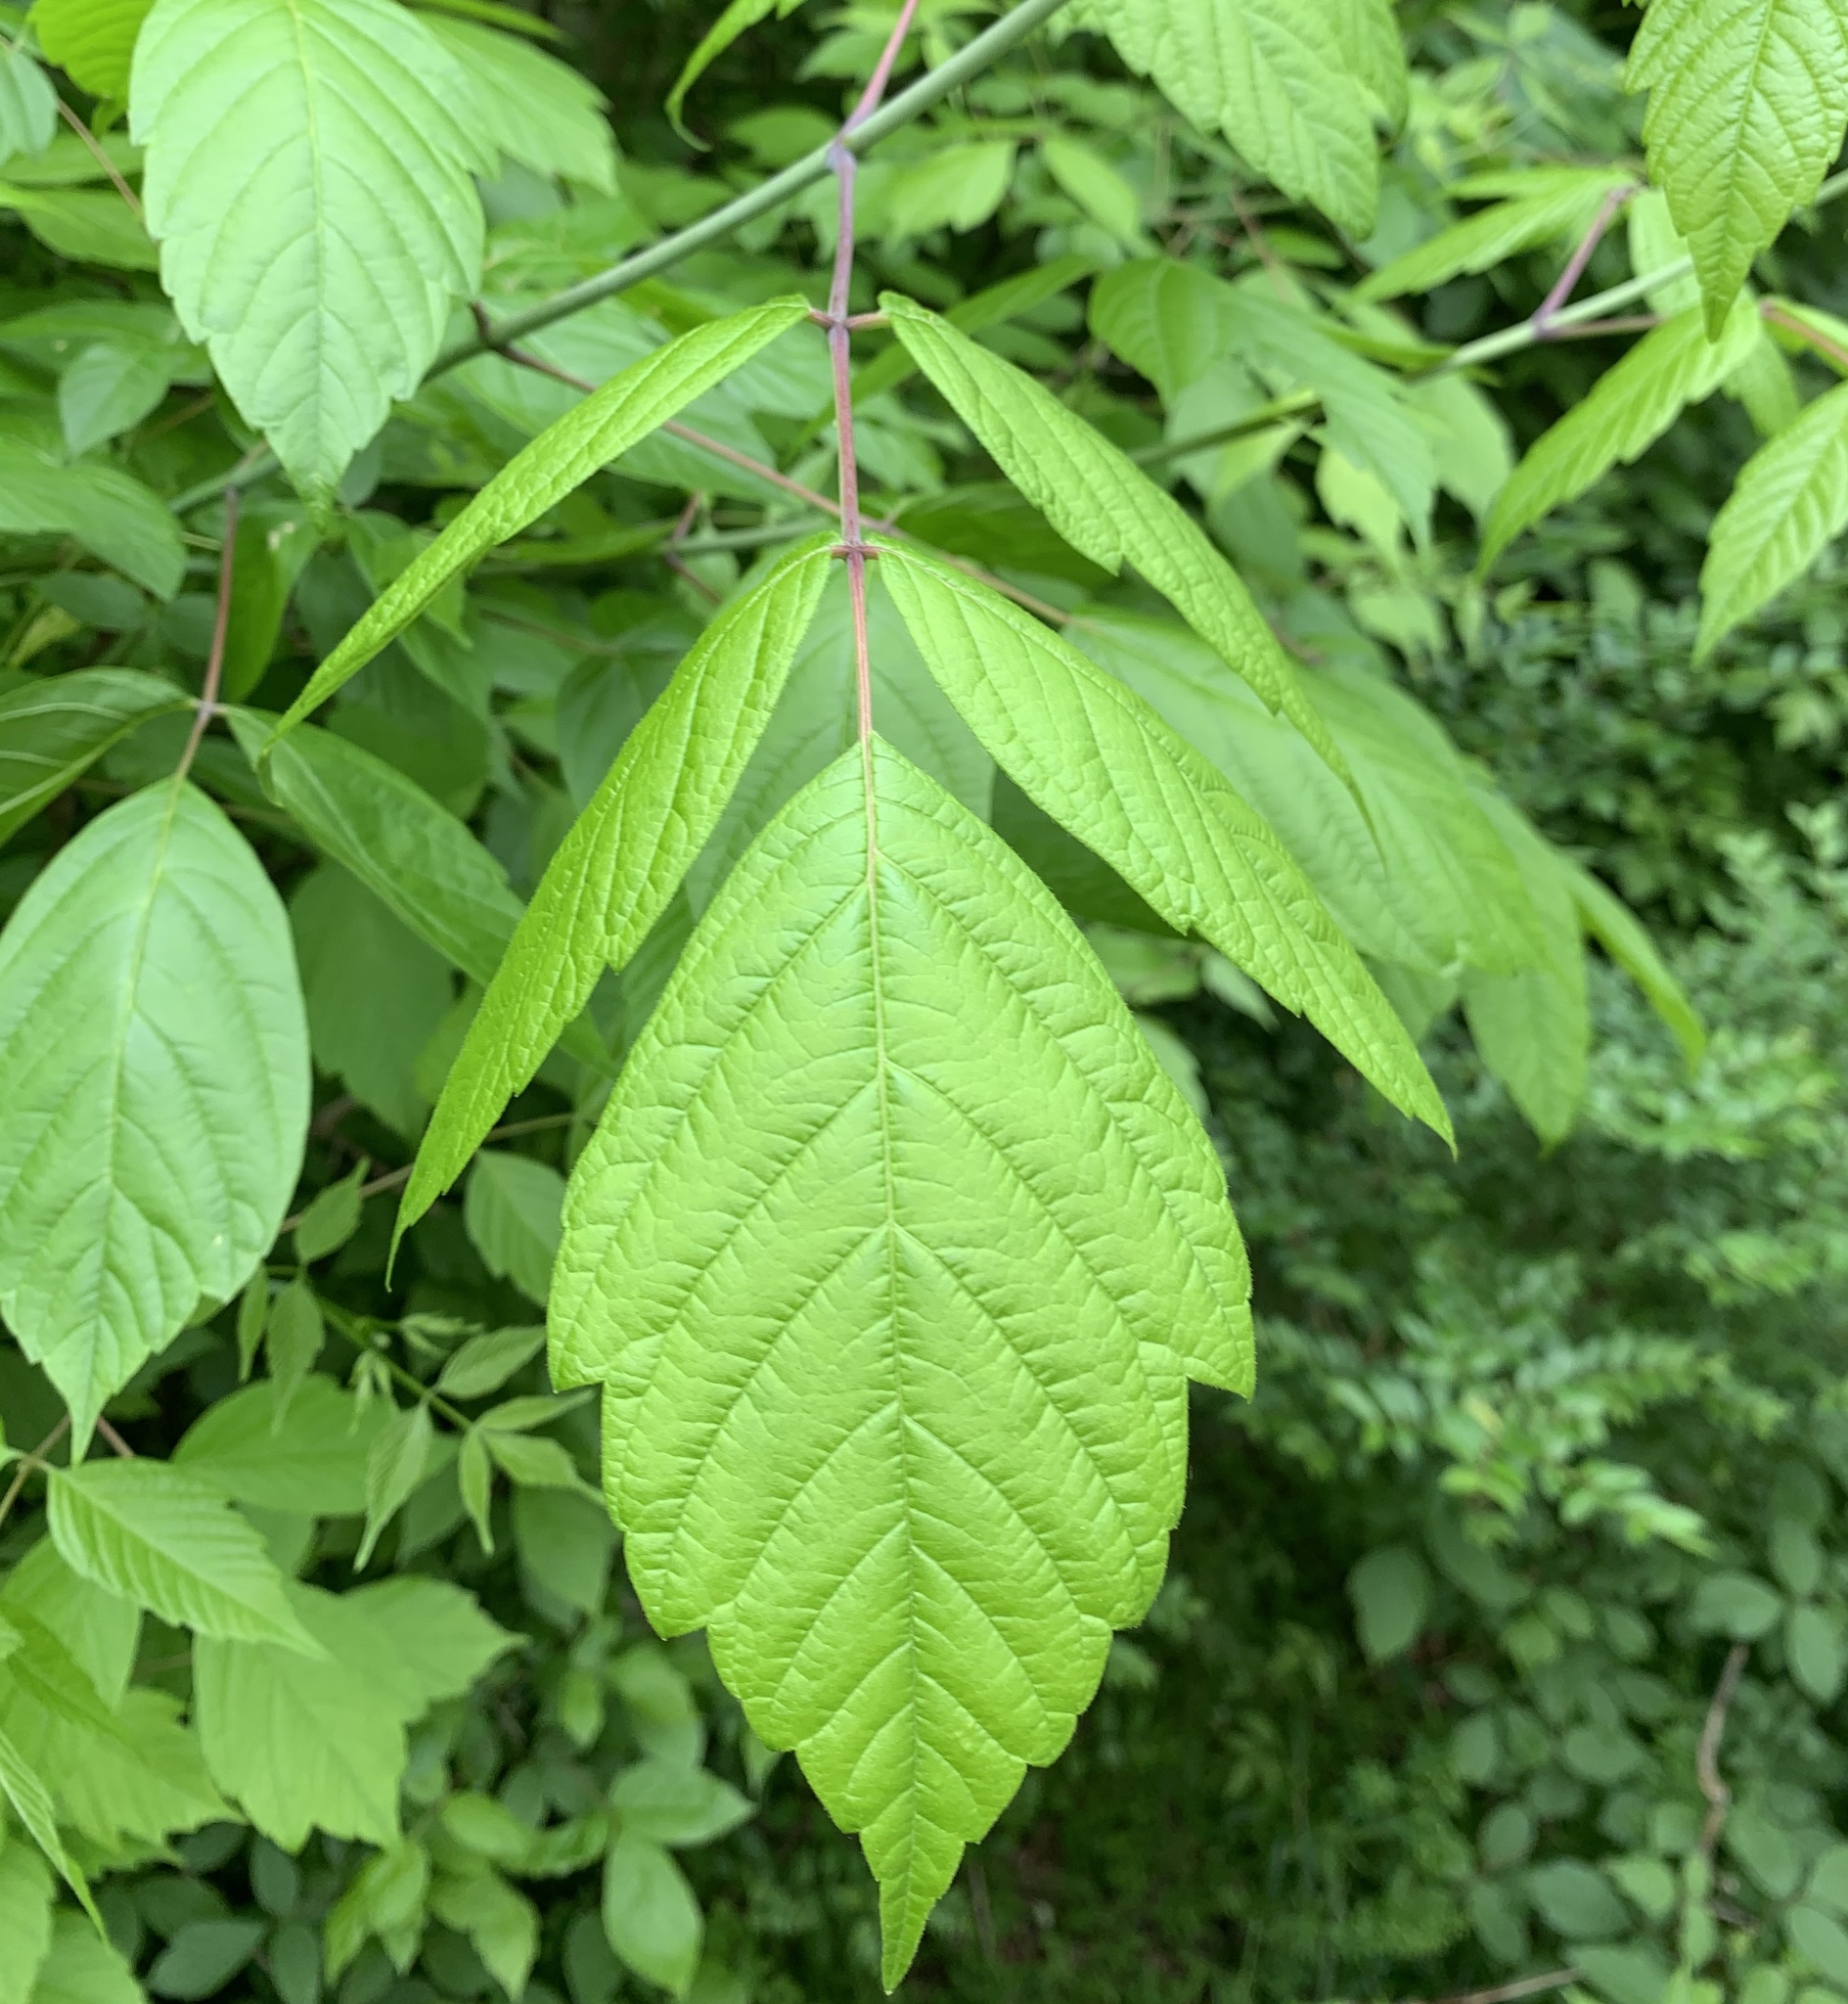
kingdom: Plantae
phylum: Tracheophyta
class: Magnoliopsida
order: Sapindales
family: Sapindaceae
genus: Acer
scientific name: Acer negundo
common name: Ashleaf maple
